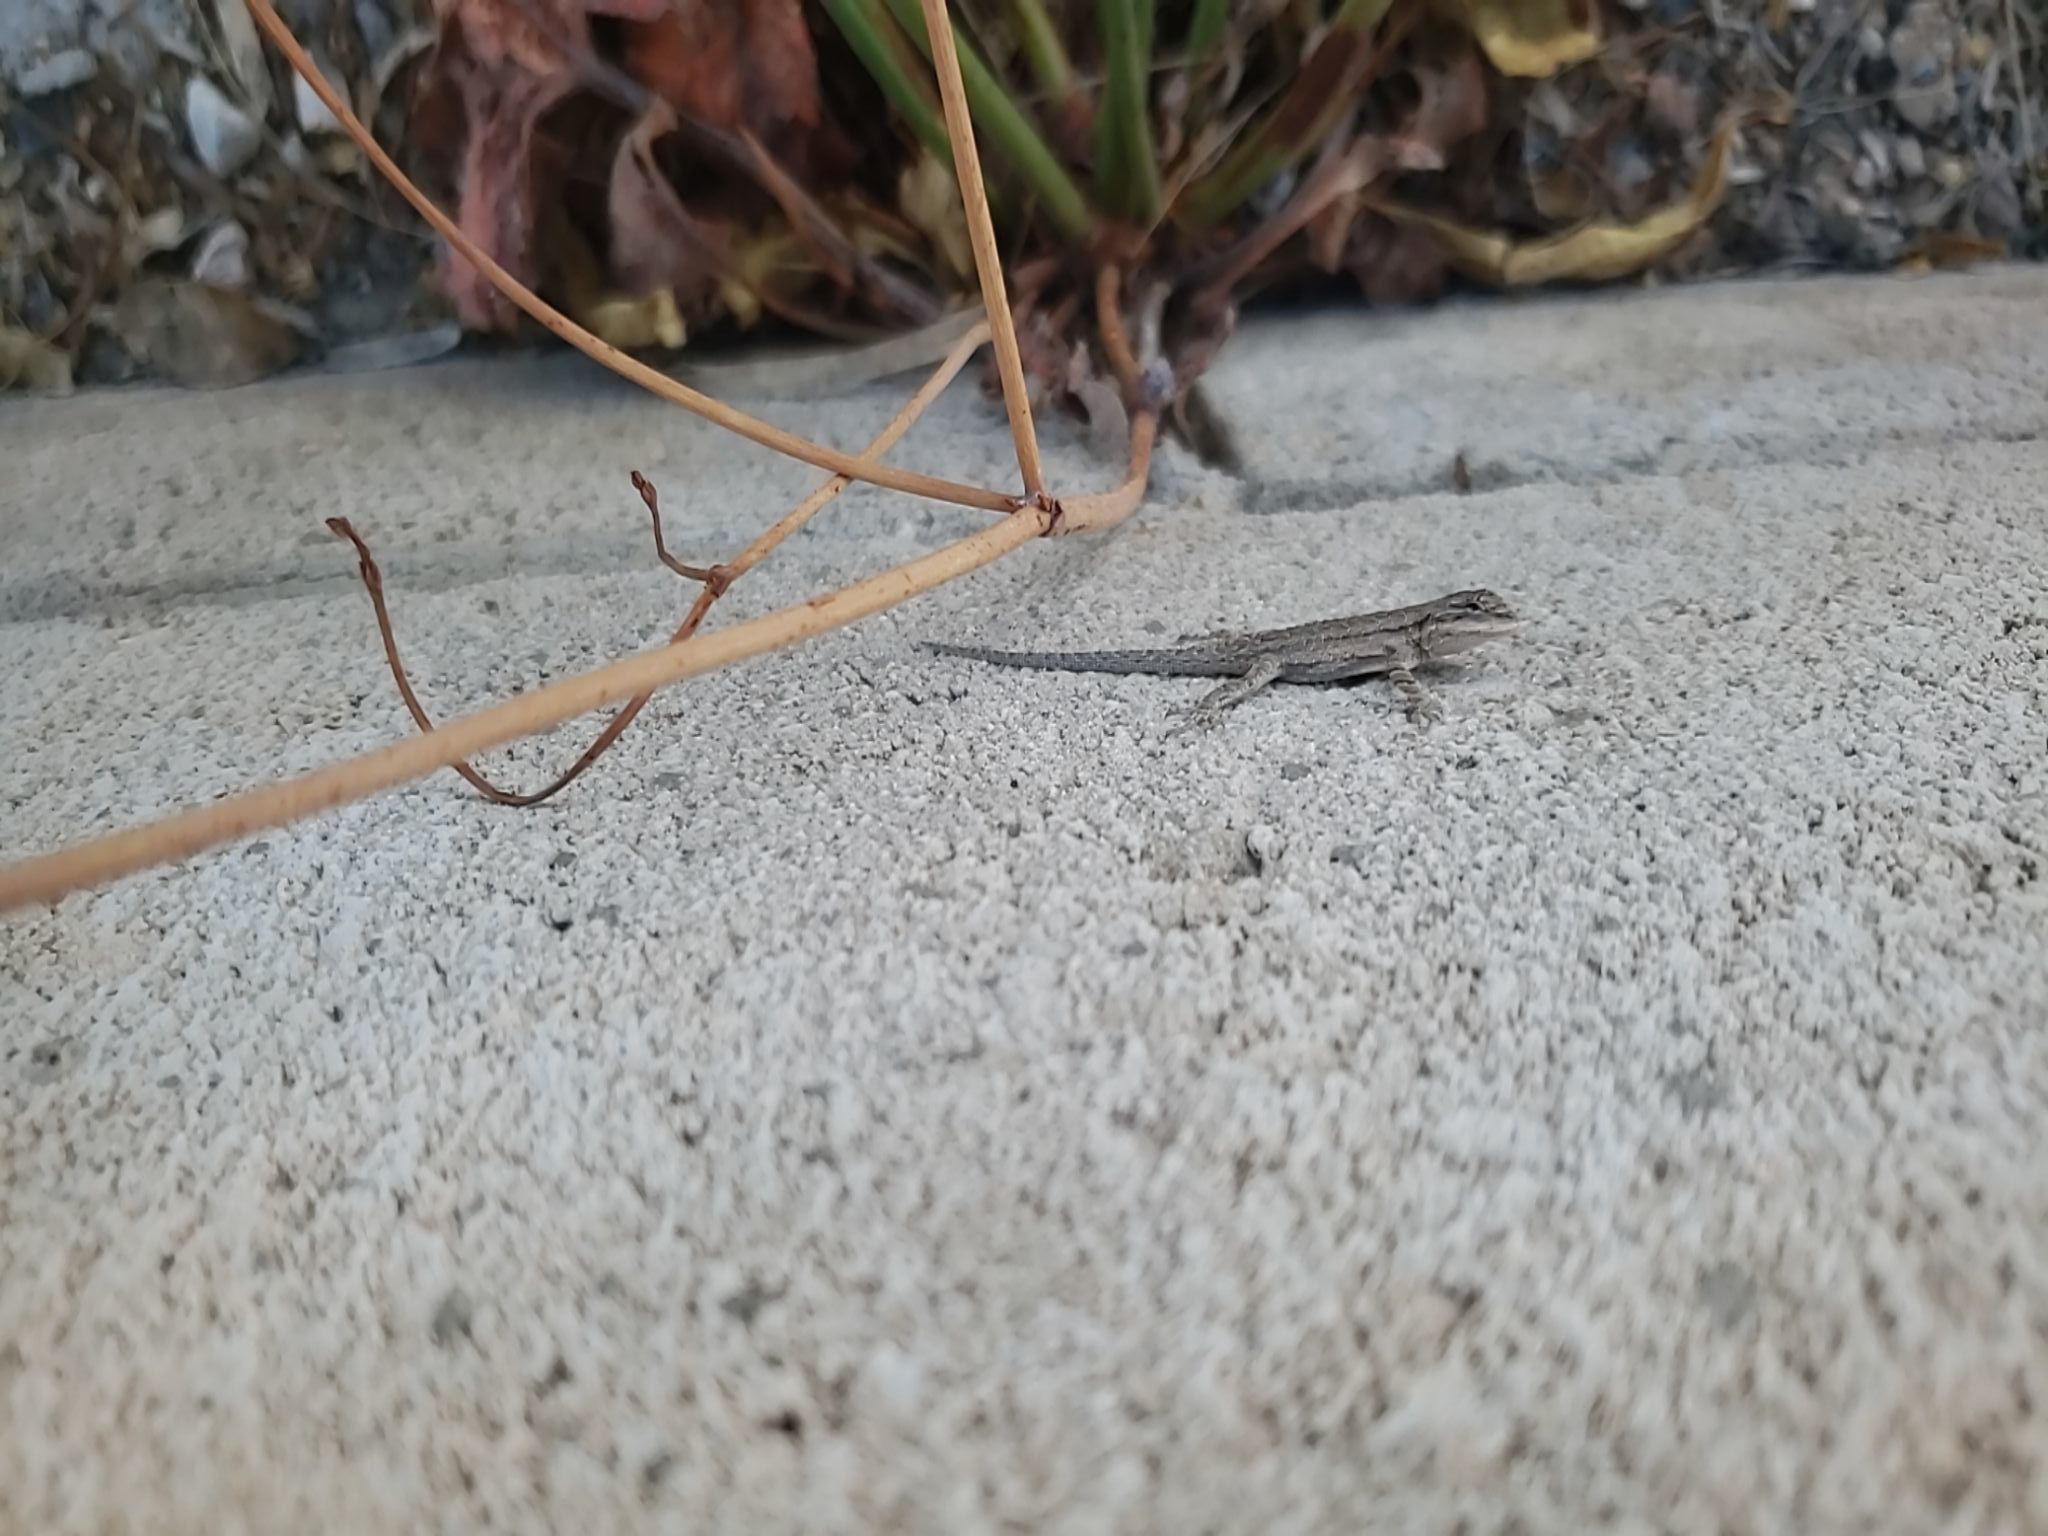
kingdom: Animalia
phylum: Chordata
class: Squamata
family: Phrynosomatidae
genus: Urosaurus
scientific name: Urosaurus ornatus
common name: Ornate tree lizard
